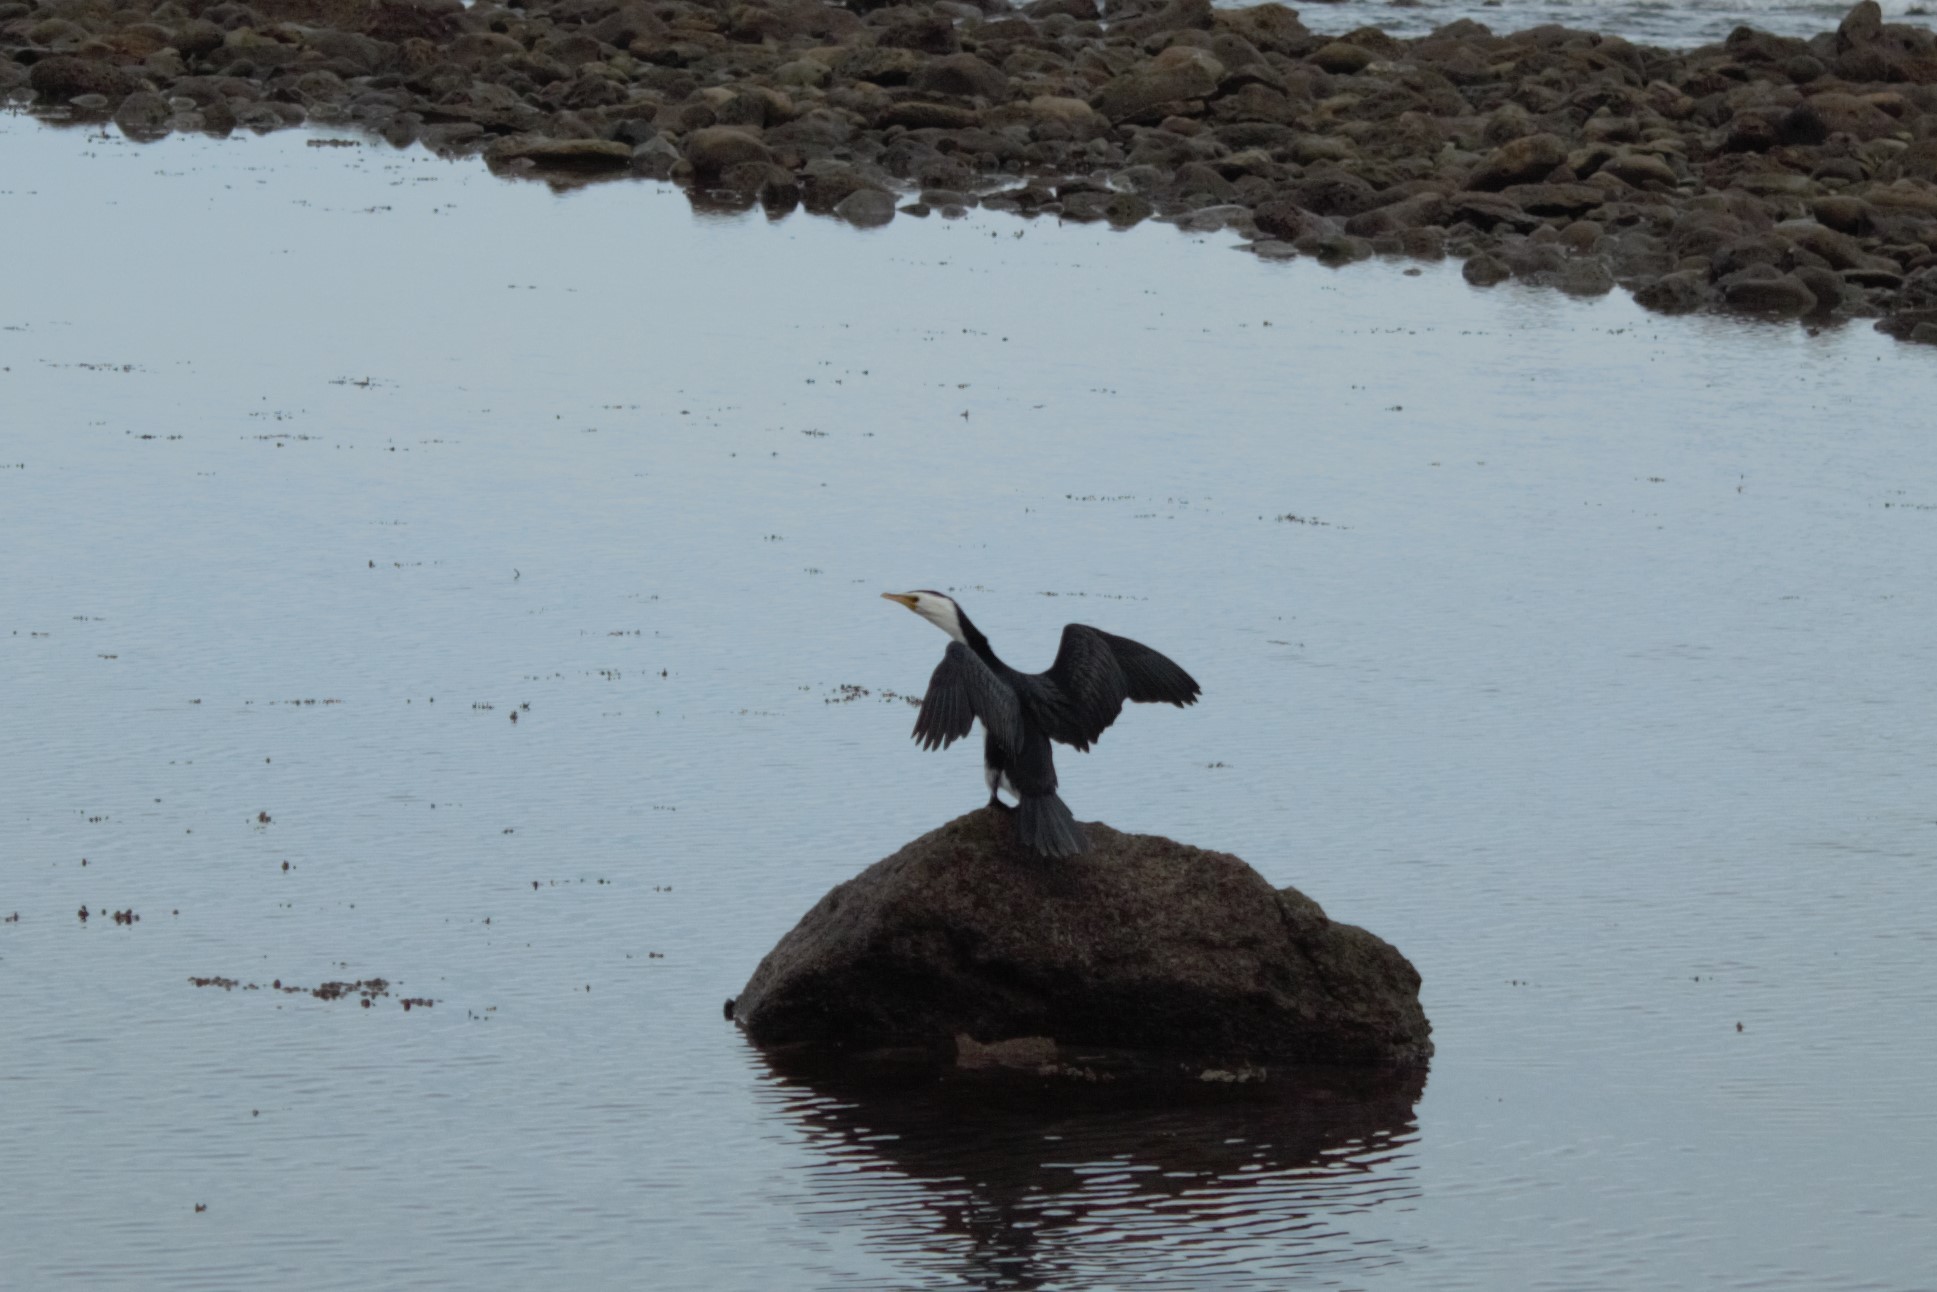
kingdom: Animalia
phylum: Chordata
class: Aves
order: Suliformes
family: Phalacrocoracidae
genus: Microcarbo
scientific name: Microcarbo melanoleucos
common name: Little pied cormorant
